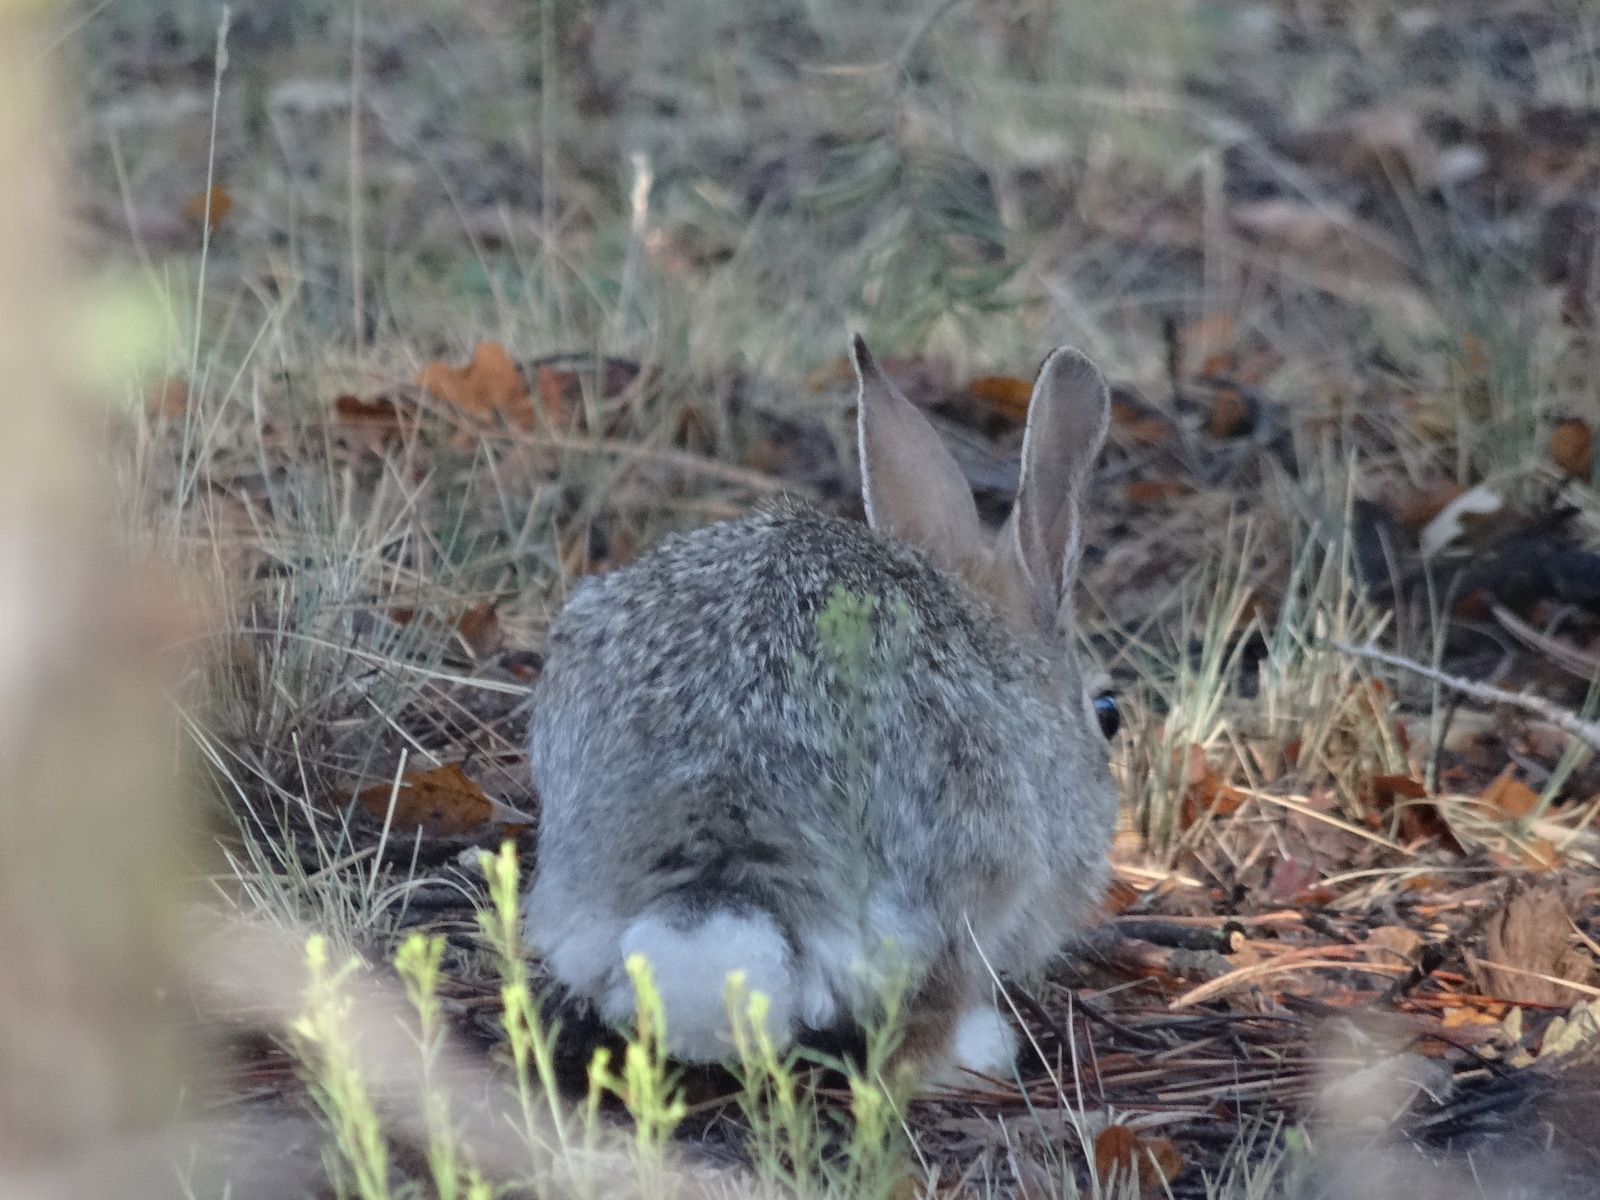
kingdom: Animalia
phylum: Chordata
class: Mammalia
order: Lagomorpha
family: Leporidae
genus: Sylvilagus
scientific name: Sylvilagus audubonii
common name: Desert cottontail
